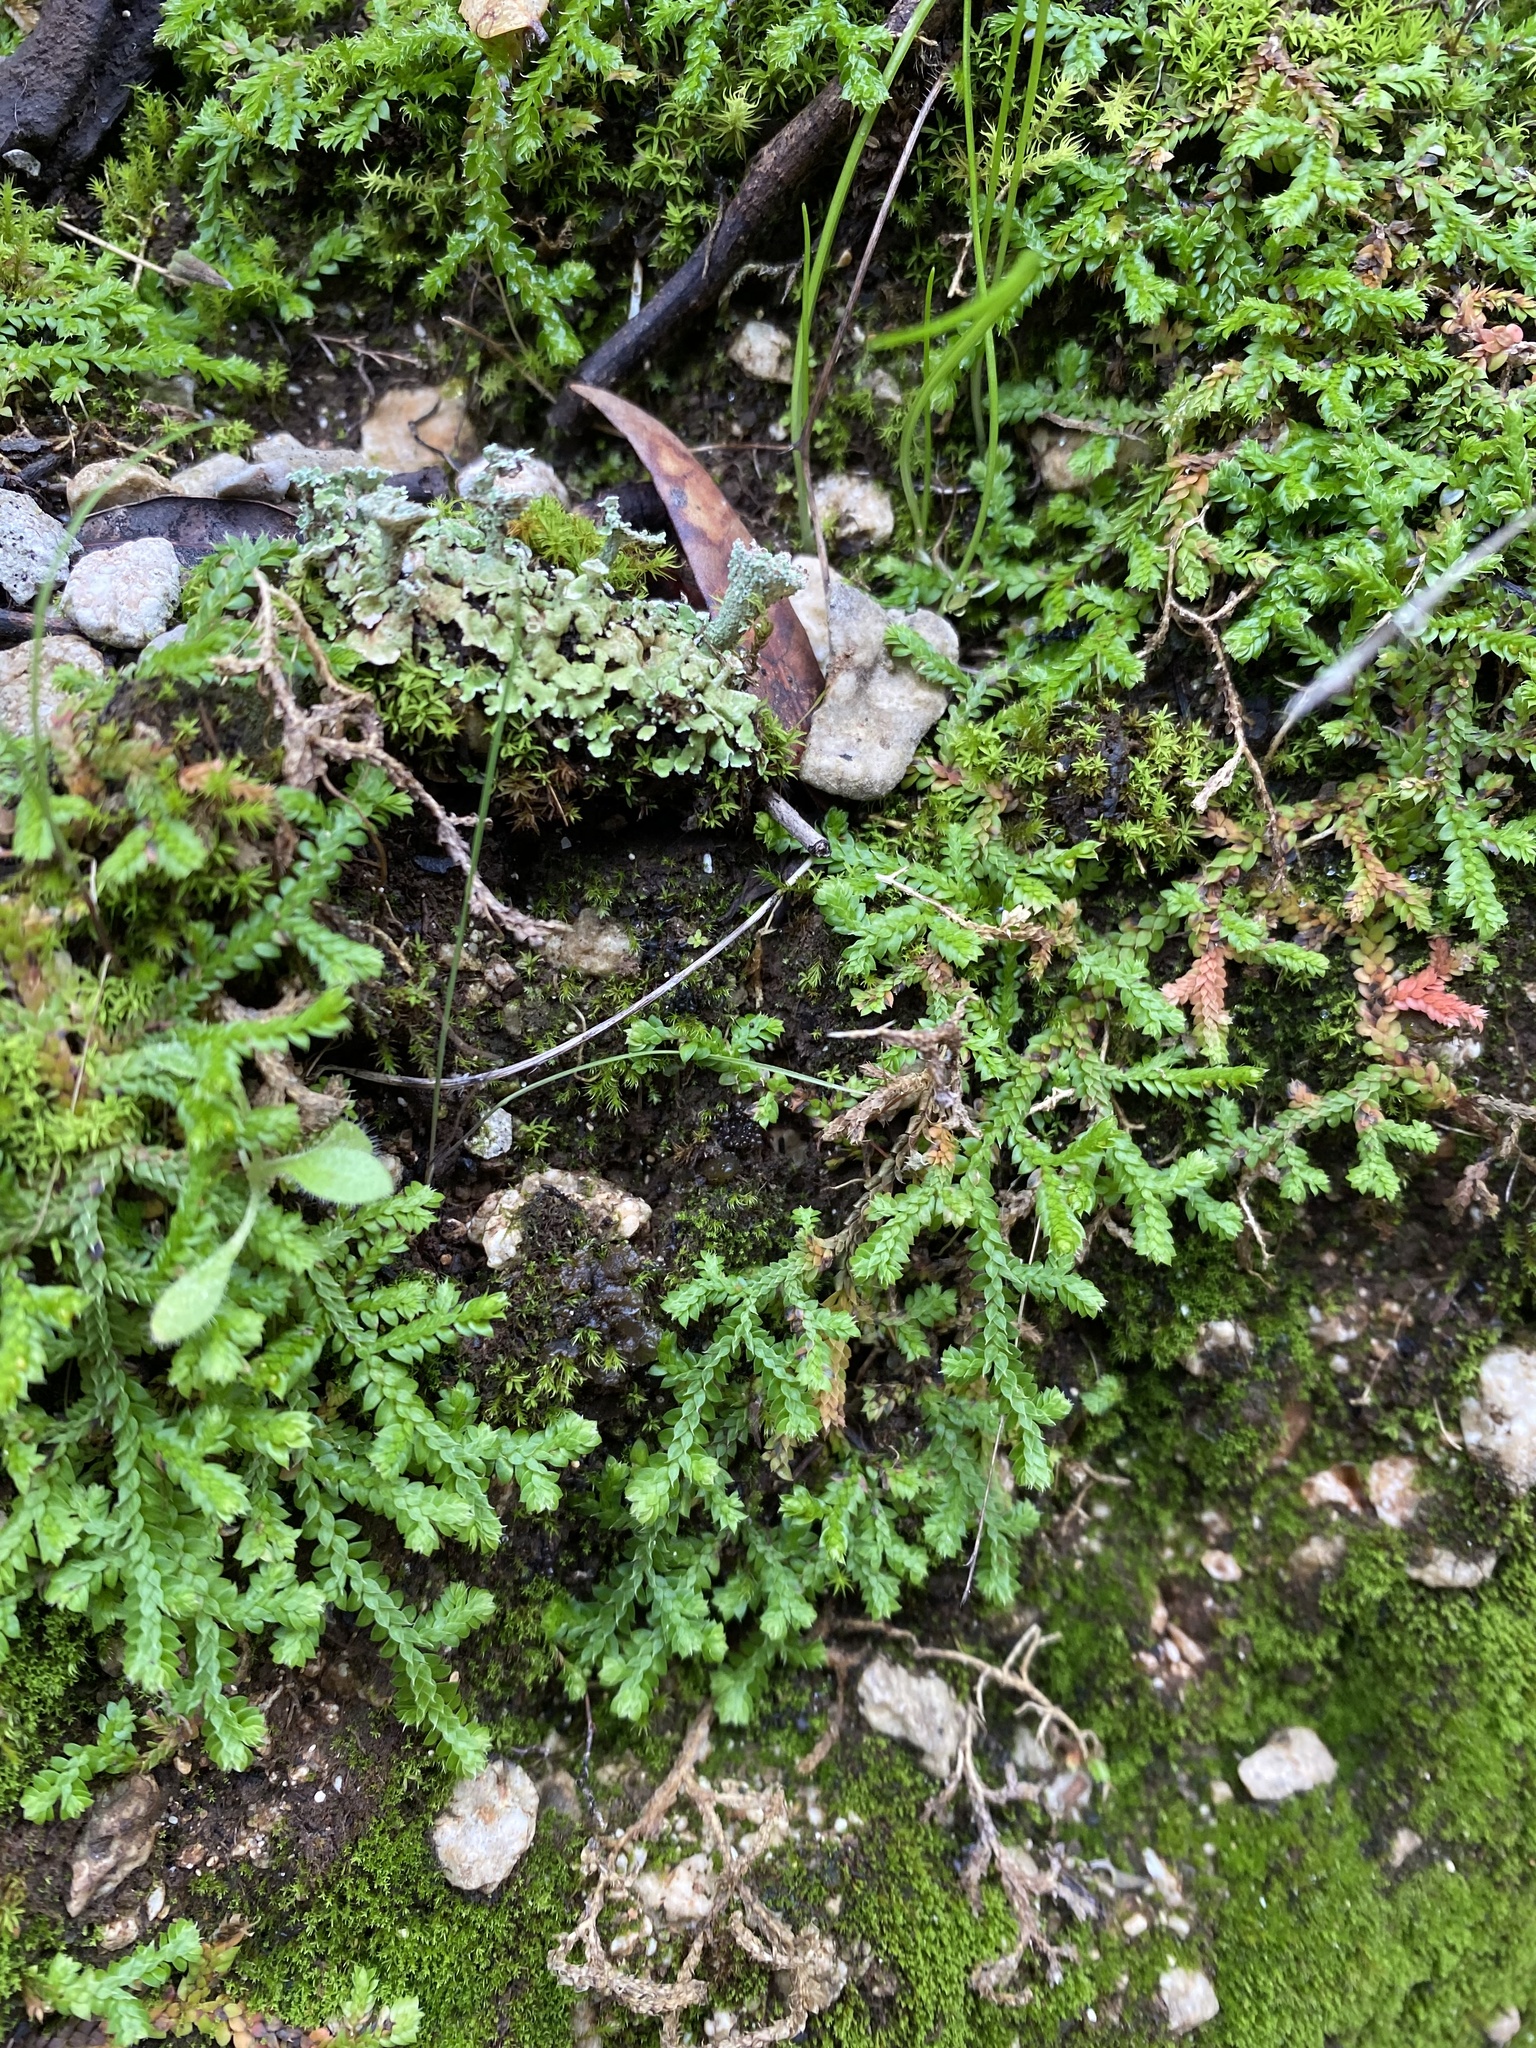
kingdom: Plantae
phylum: Tracheophyta
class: Lycopodiopsida
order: Selaginellales
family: Selaginellaceae
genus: Selaginella
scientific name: Selaginella denticulata
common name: Toothed-leaved clubmoss
